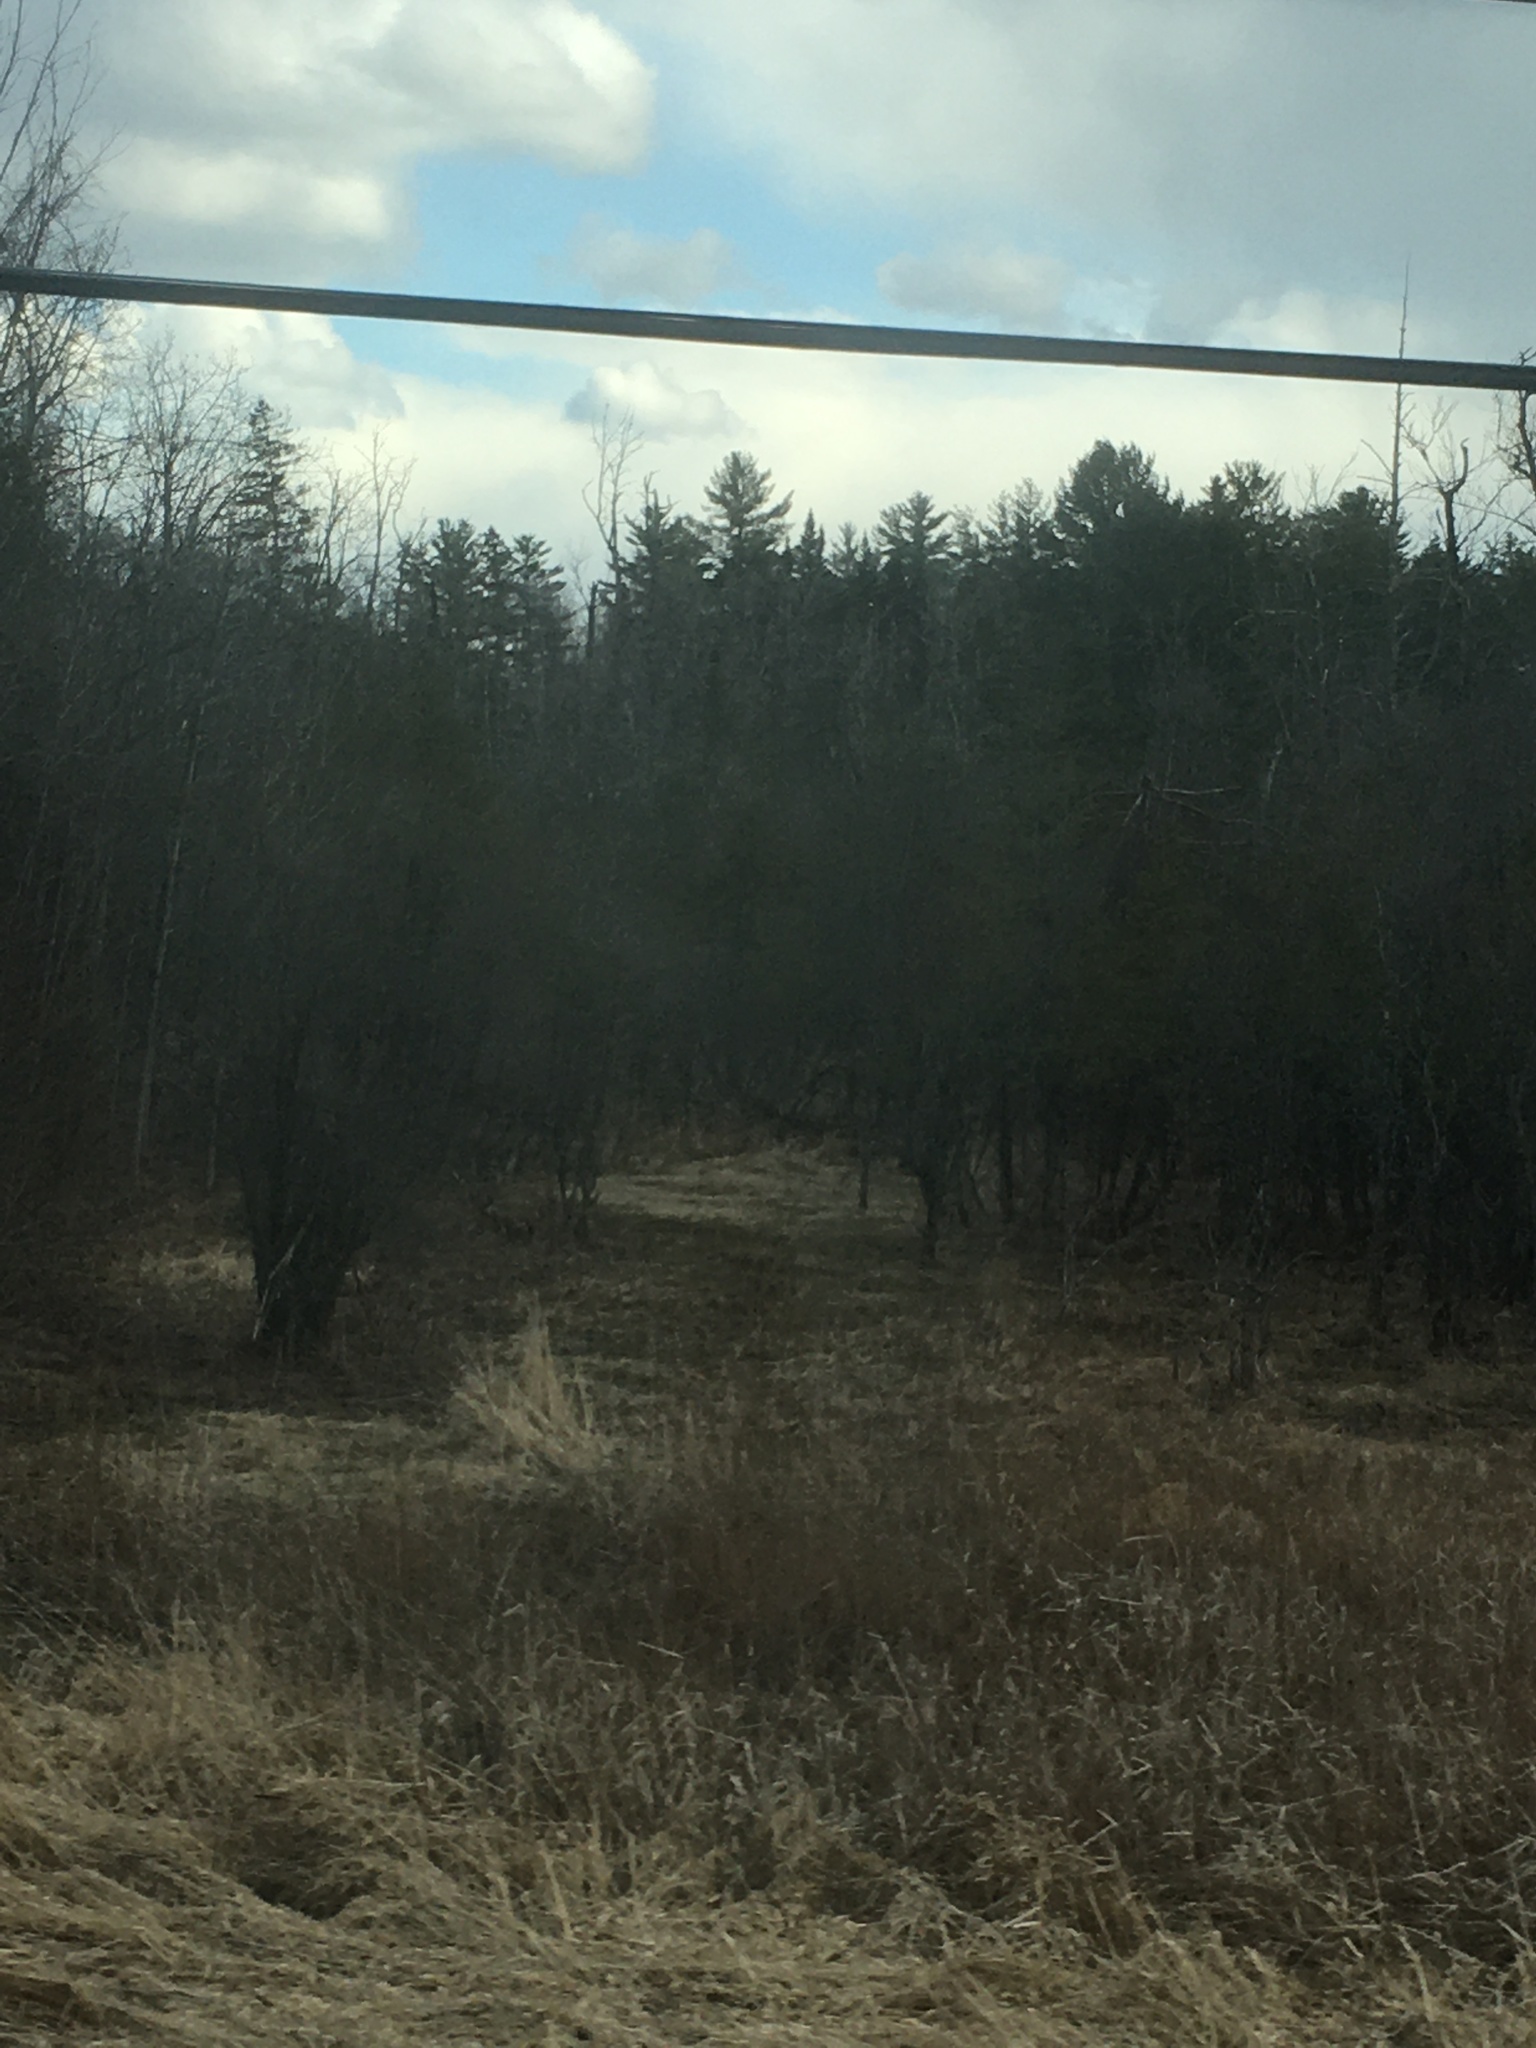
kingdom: Plantae
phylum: Tracheophyta
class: Pinopsida
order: Pinales
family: Pinaceae
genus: Pinus
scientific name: Pinus strobus
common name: Weymouth pine
